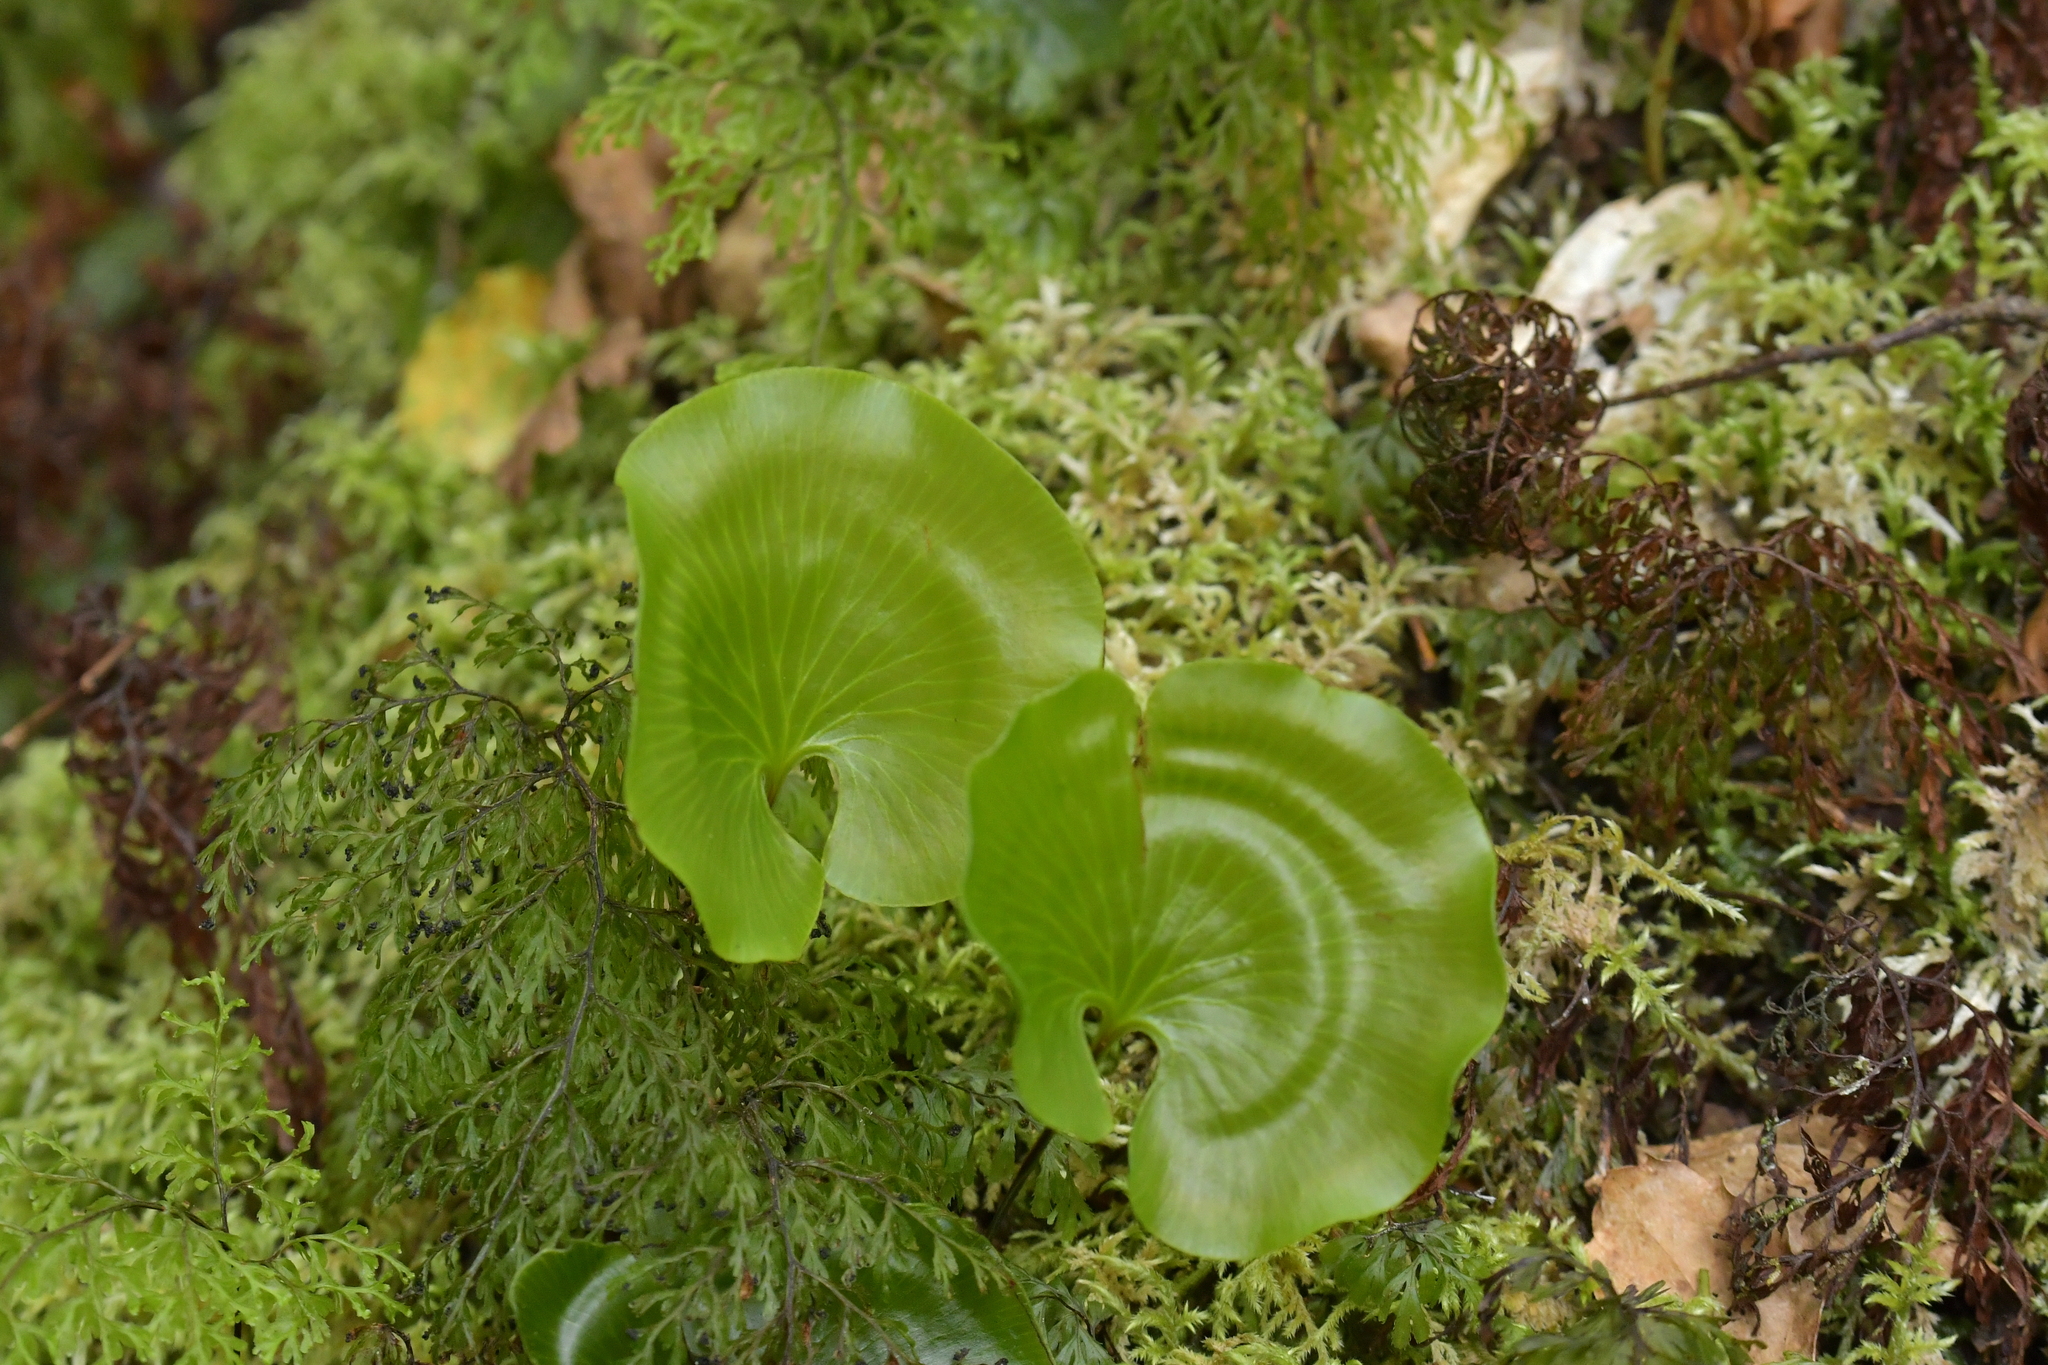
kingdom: Plantae
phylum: Tracheophyta
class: Polypodiopsida
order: Hymenophyllales
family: Hymenophyllaceae
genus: Hymenophyllum
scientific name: Hymenophyllum nephrophyllum
